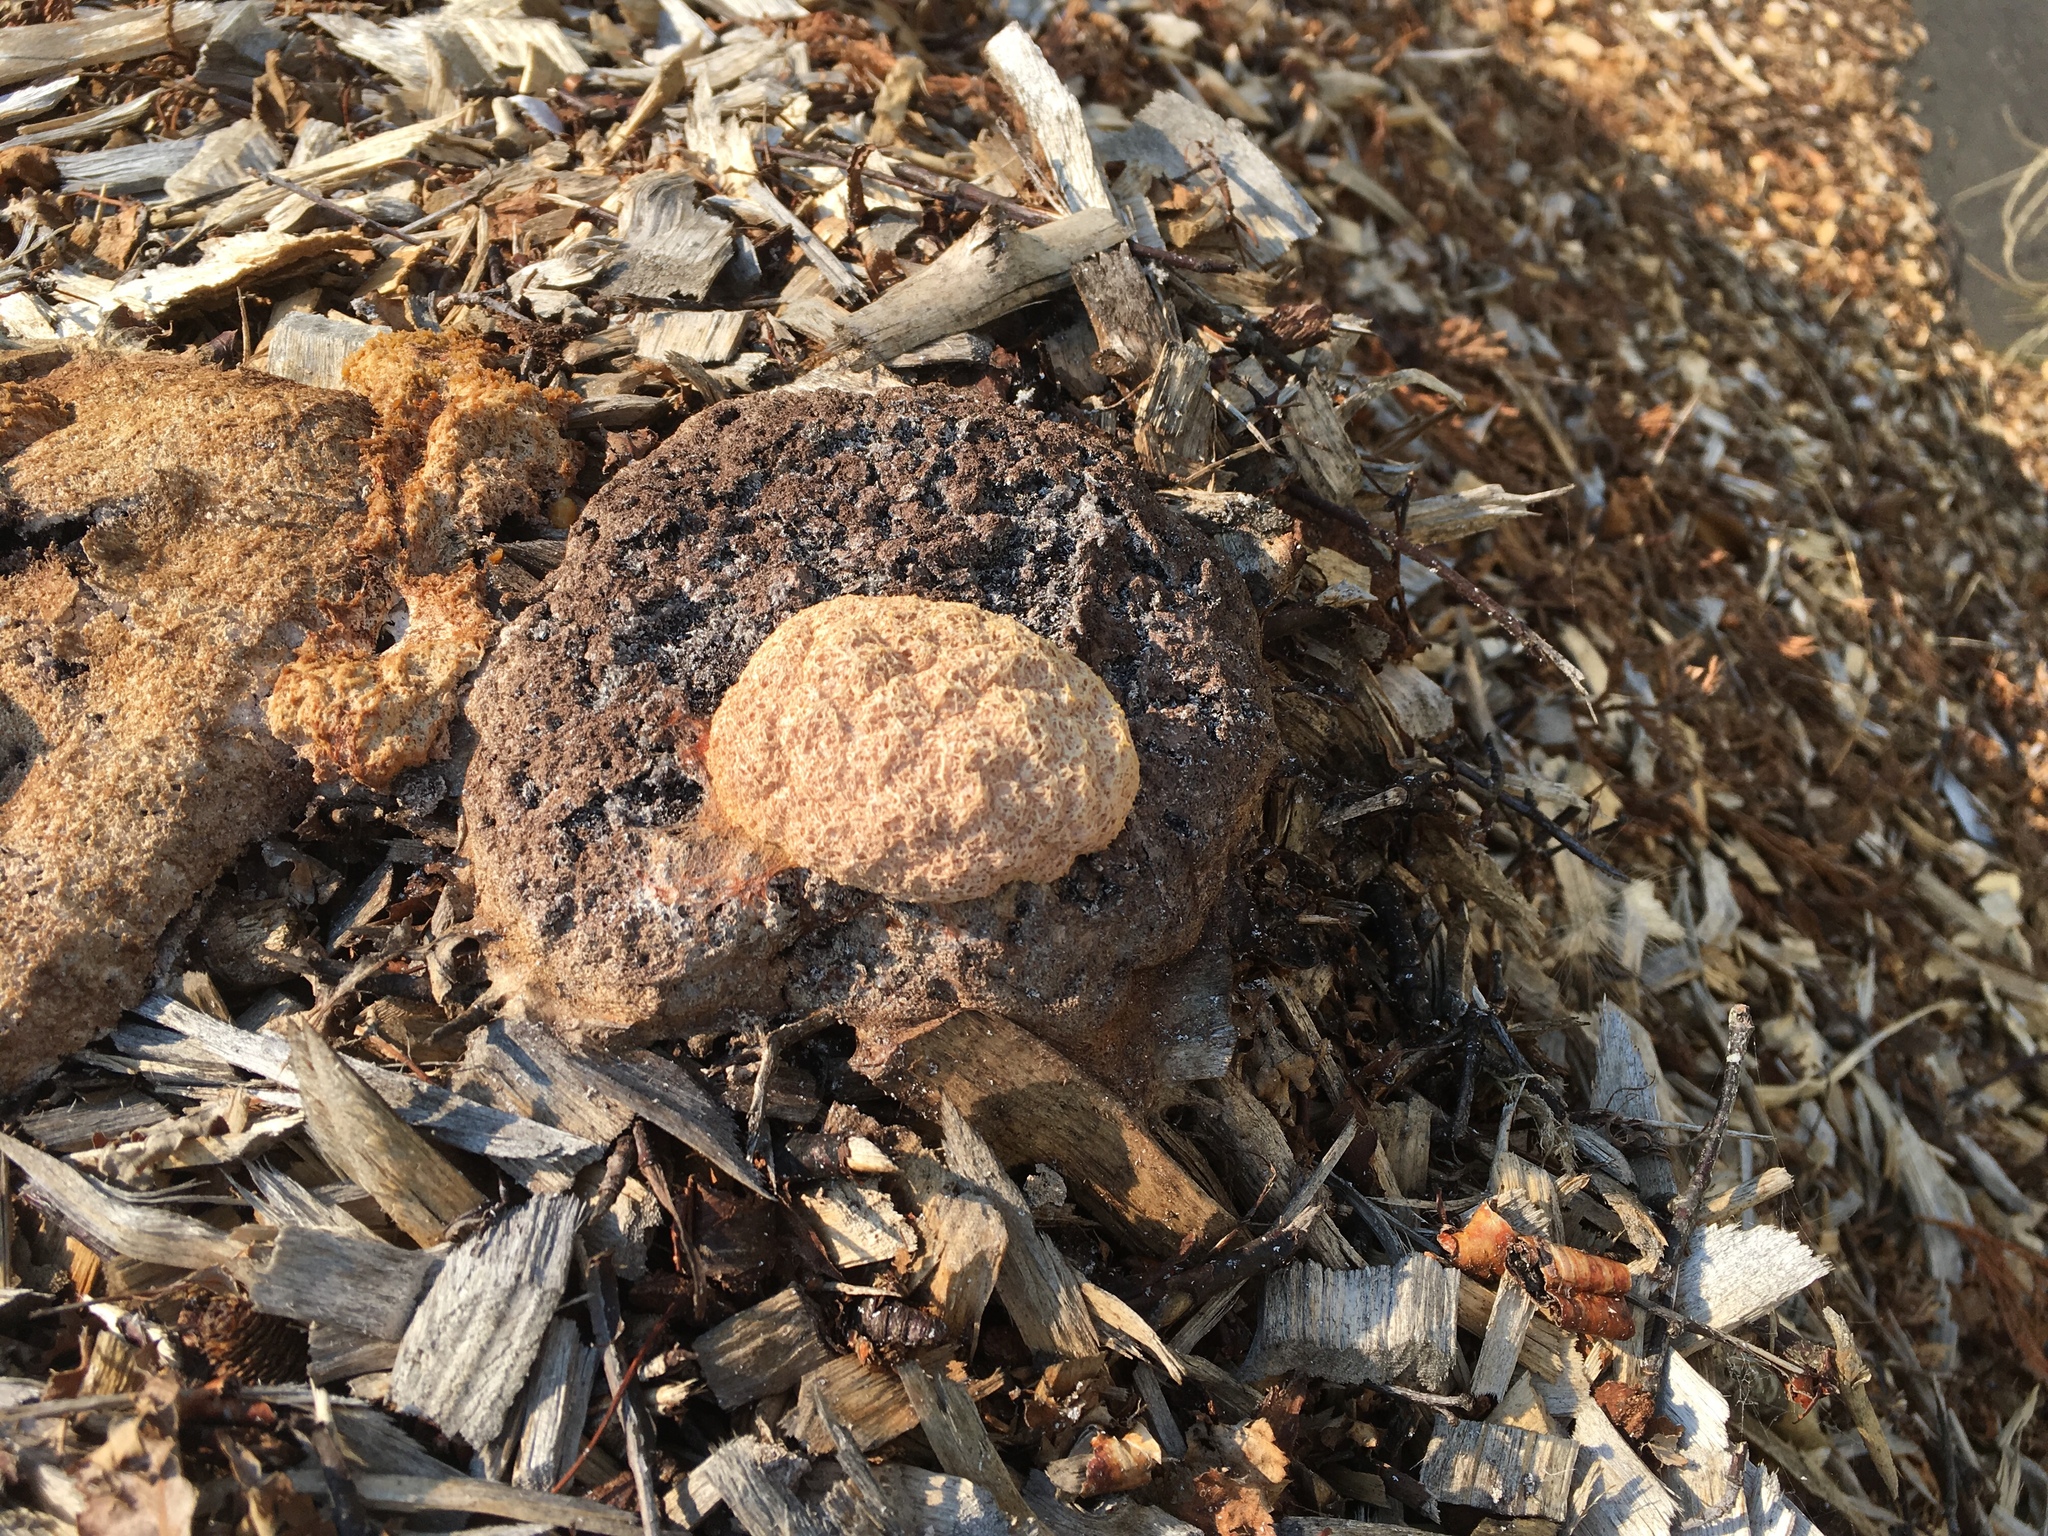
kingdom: Protozoa
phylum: Mycetozoa
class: Myxomycetes
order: Physarales
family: Physaraceae
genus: Fuligo
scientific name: Fuligo septica
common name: Dog vomit slime mold
